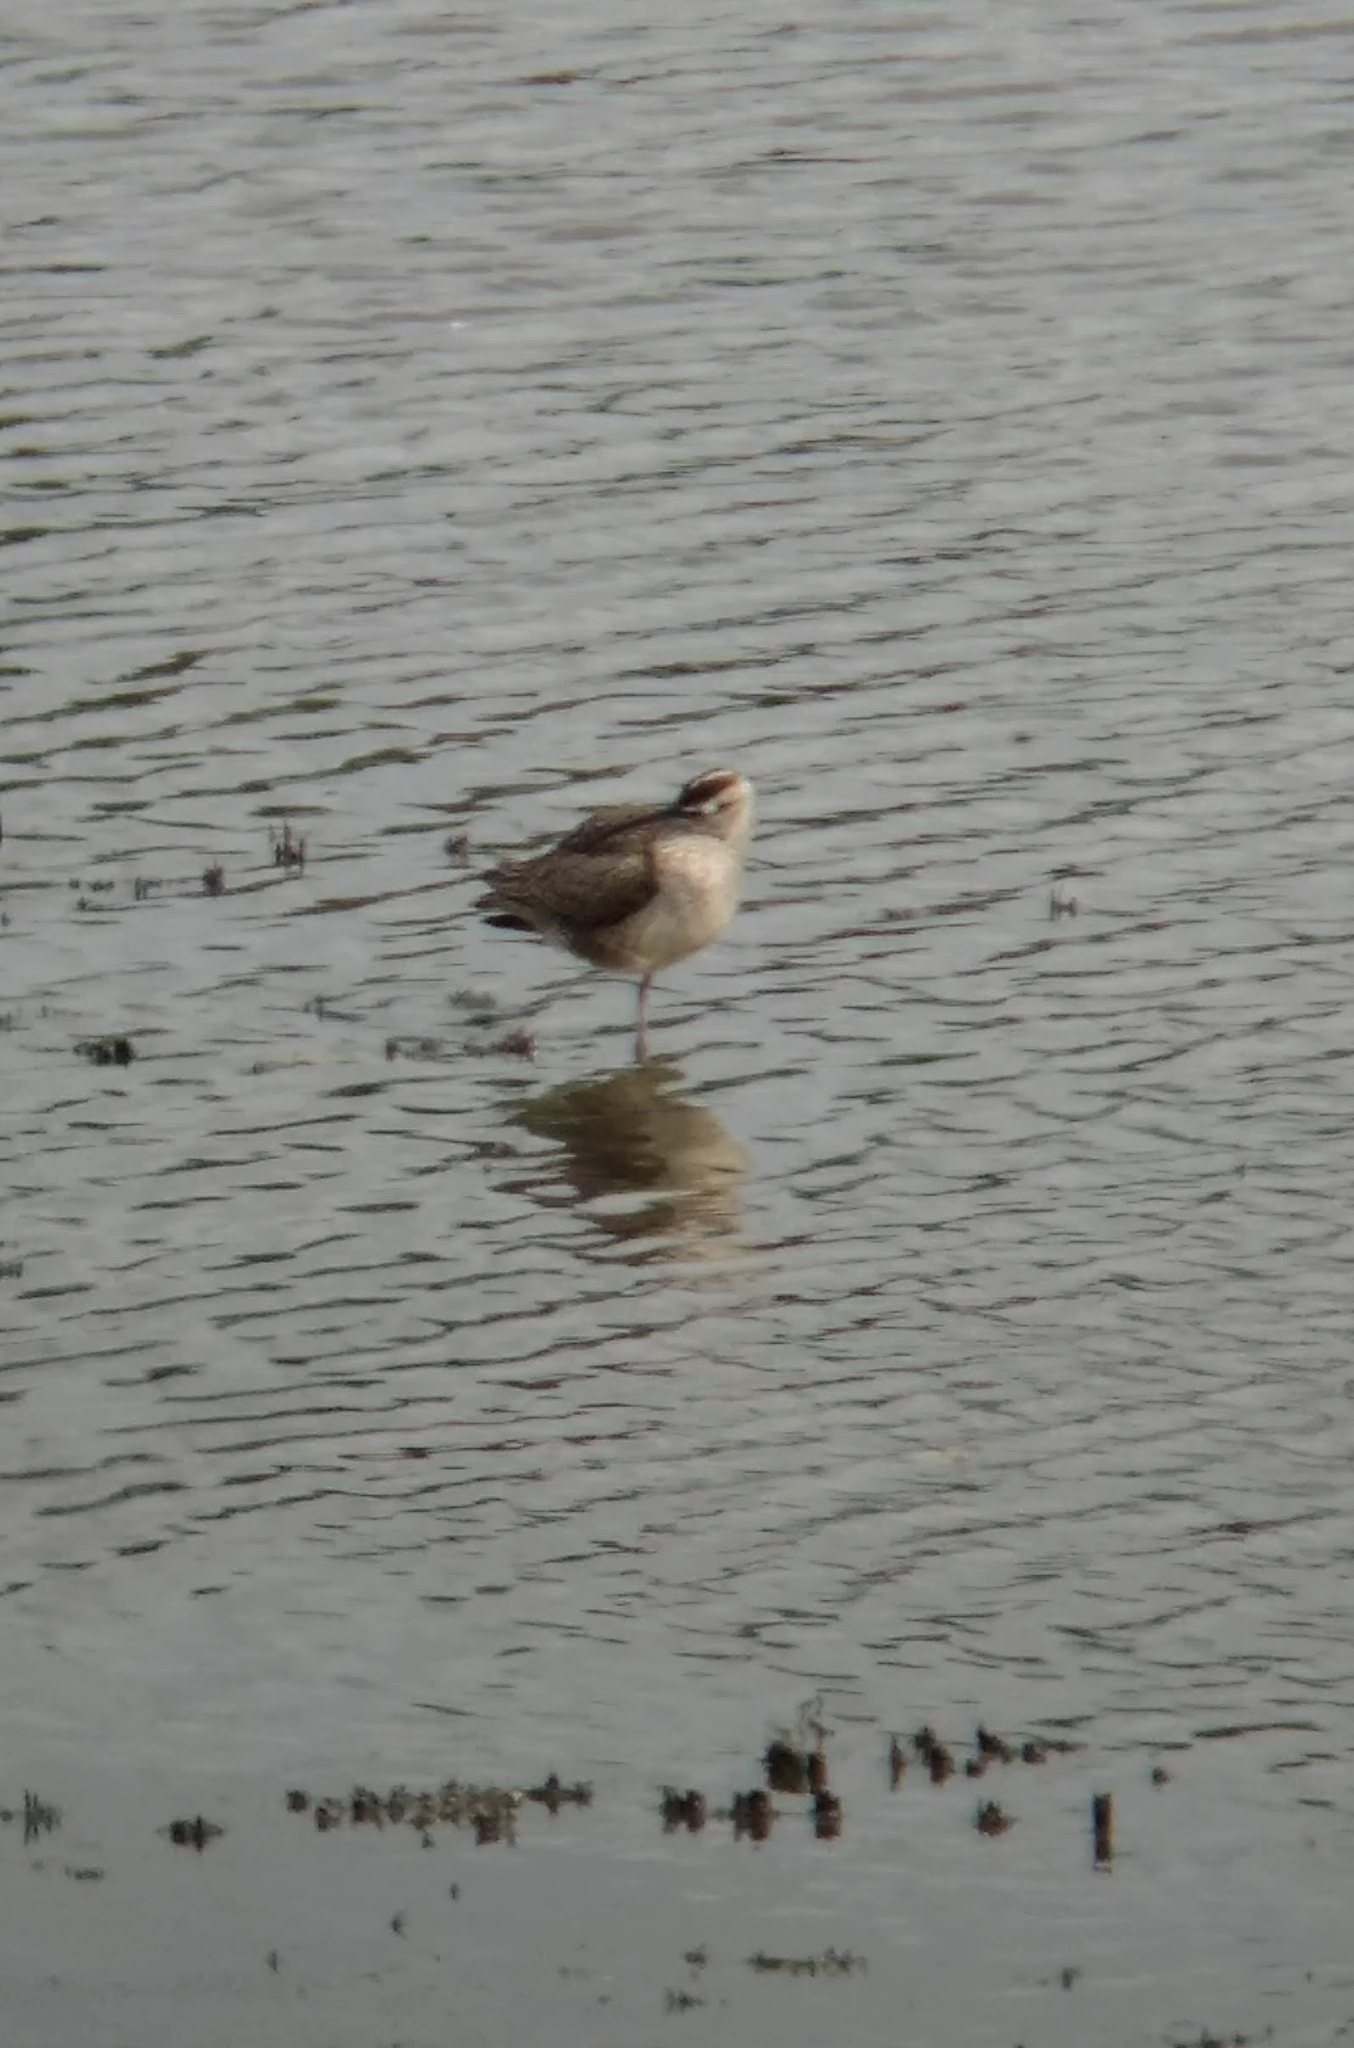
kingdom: Animalia
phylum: Chordata
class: Aves
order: Charadriiformes
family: Scolopacidae
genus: Numenius
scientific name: Numenius phaeopus
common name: Whimbrel
